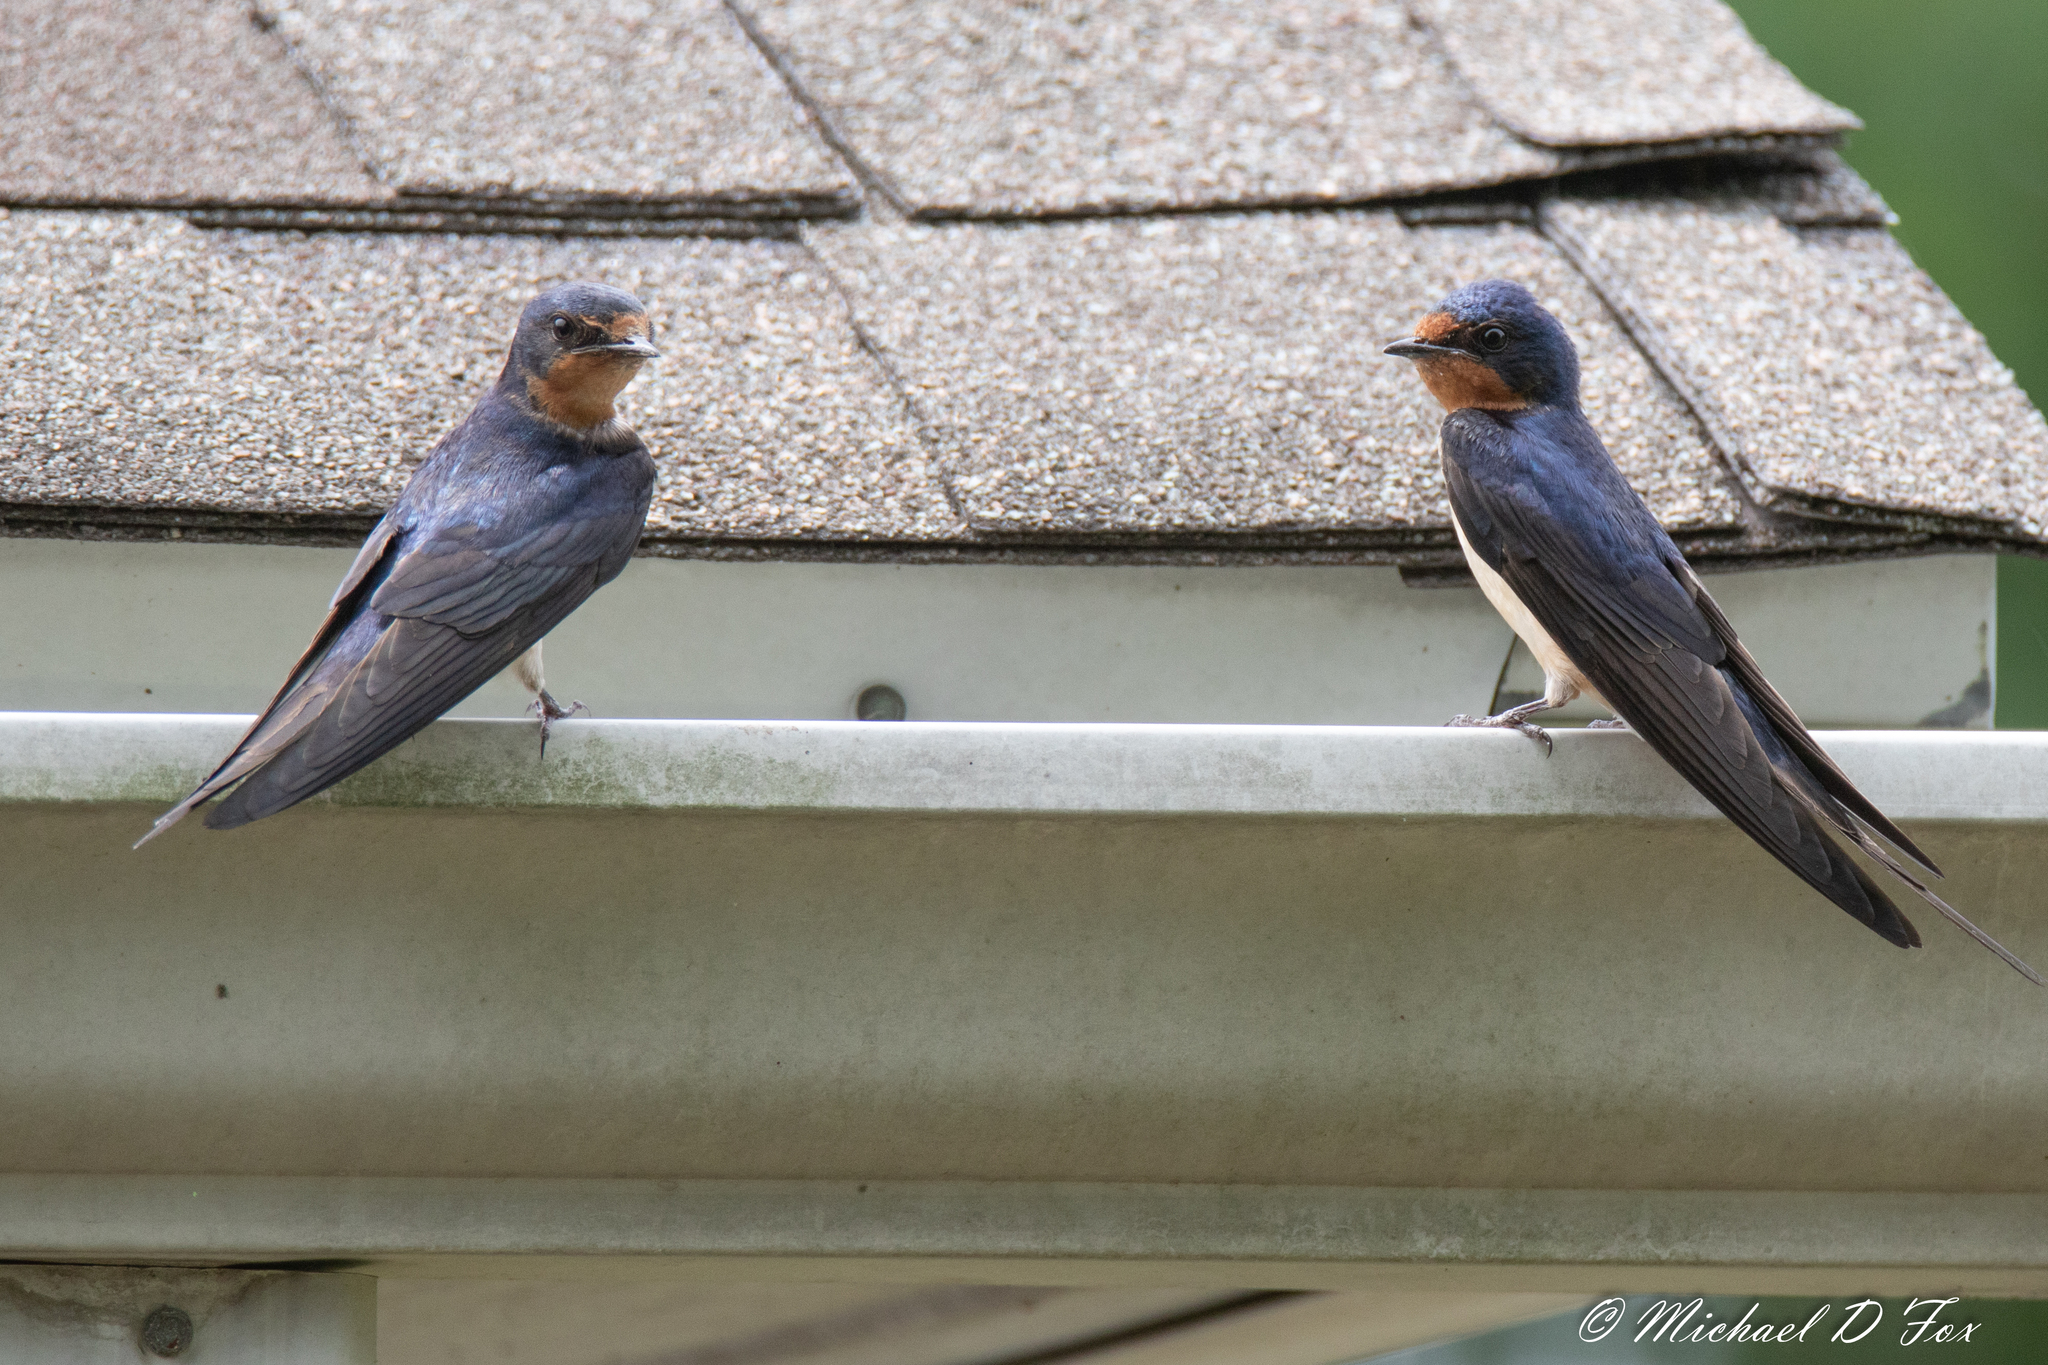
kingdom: Animalia
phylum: Chordata
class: Aves
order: Passeriformes
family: Hirundinidae
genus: Hirundo
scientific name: Hirundo rustica
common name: Barn swallow
